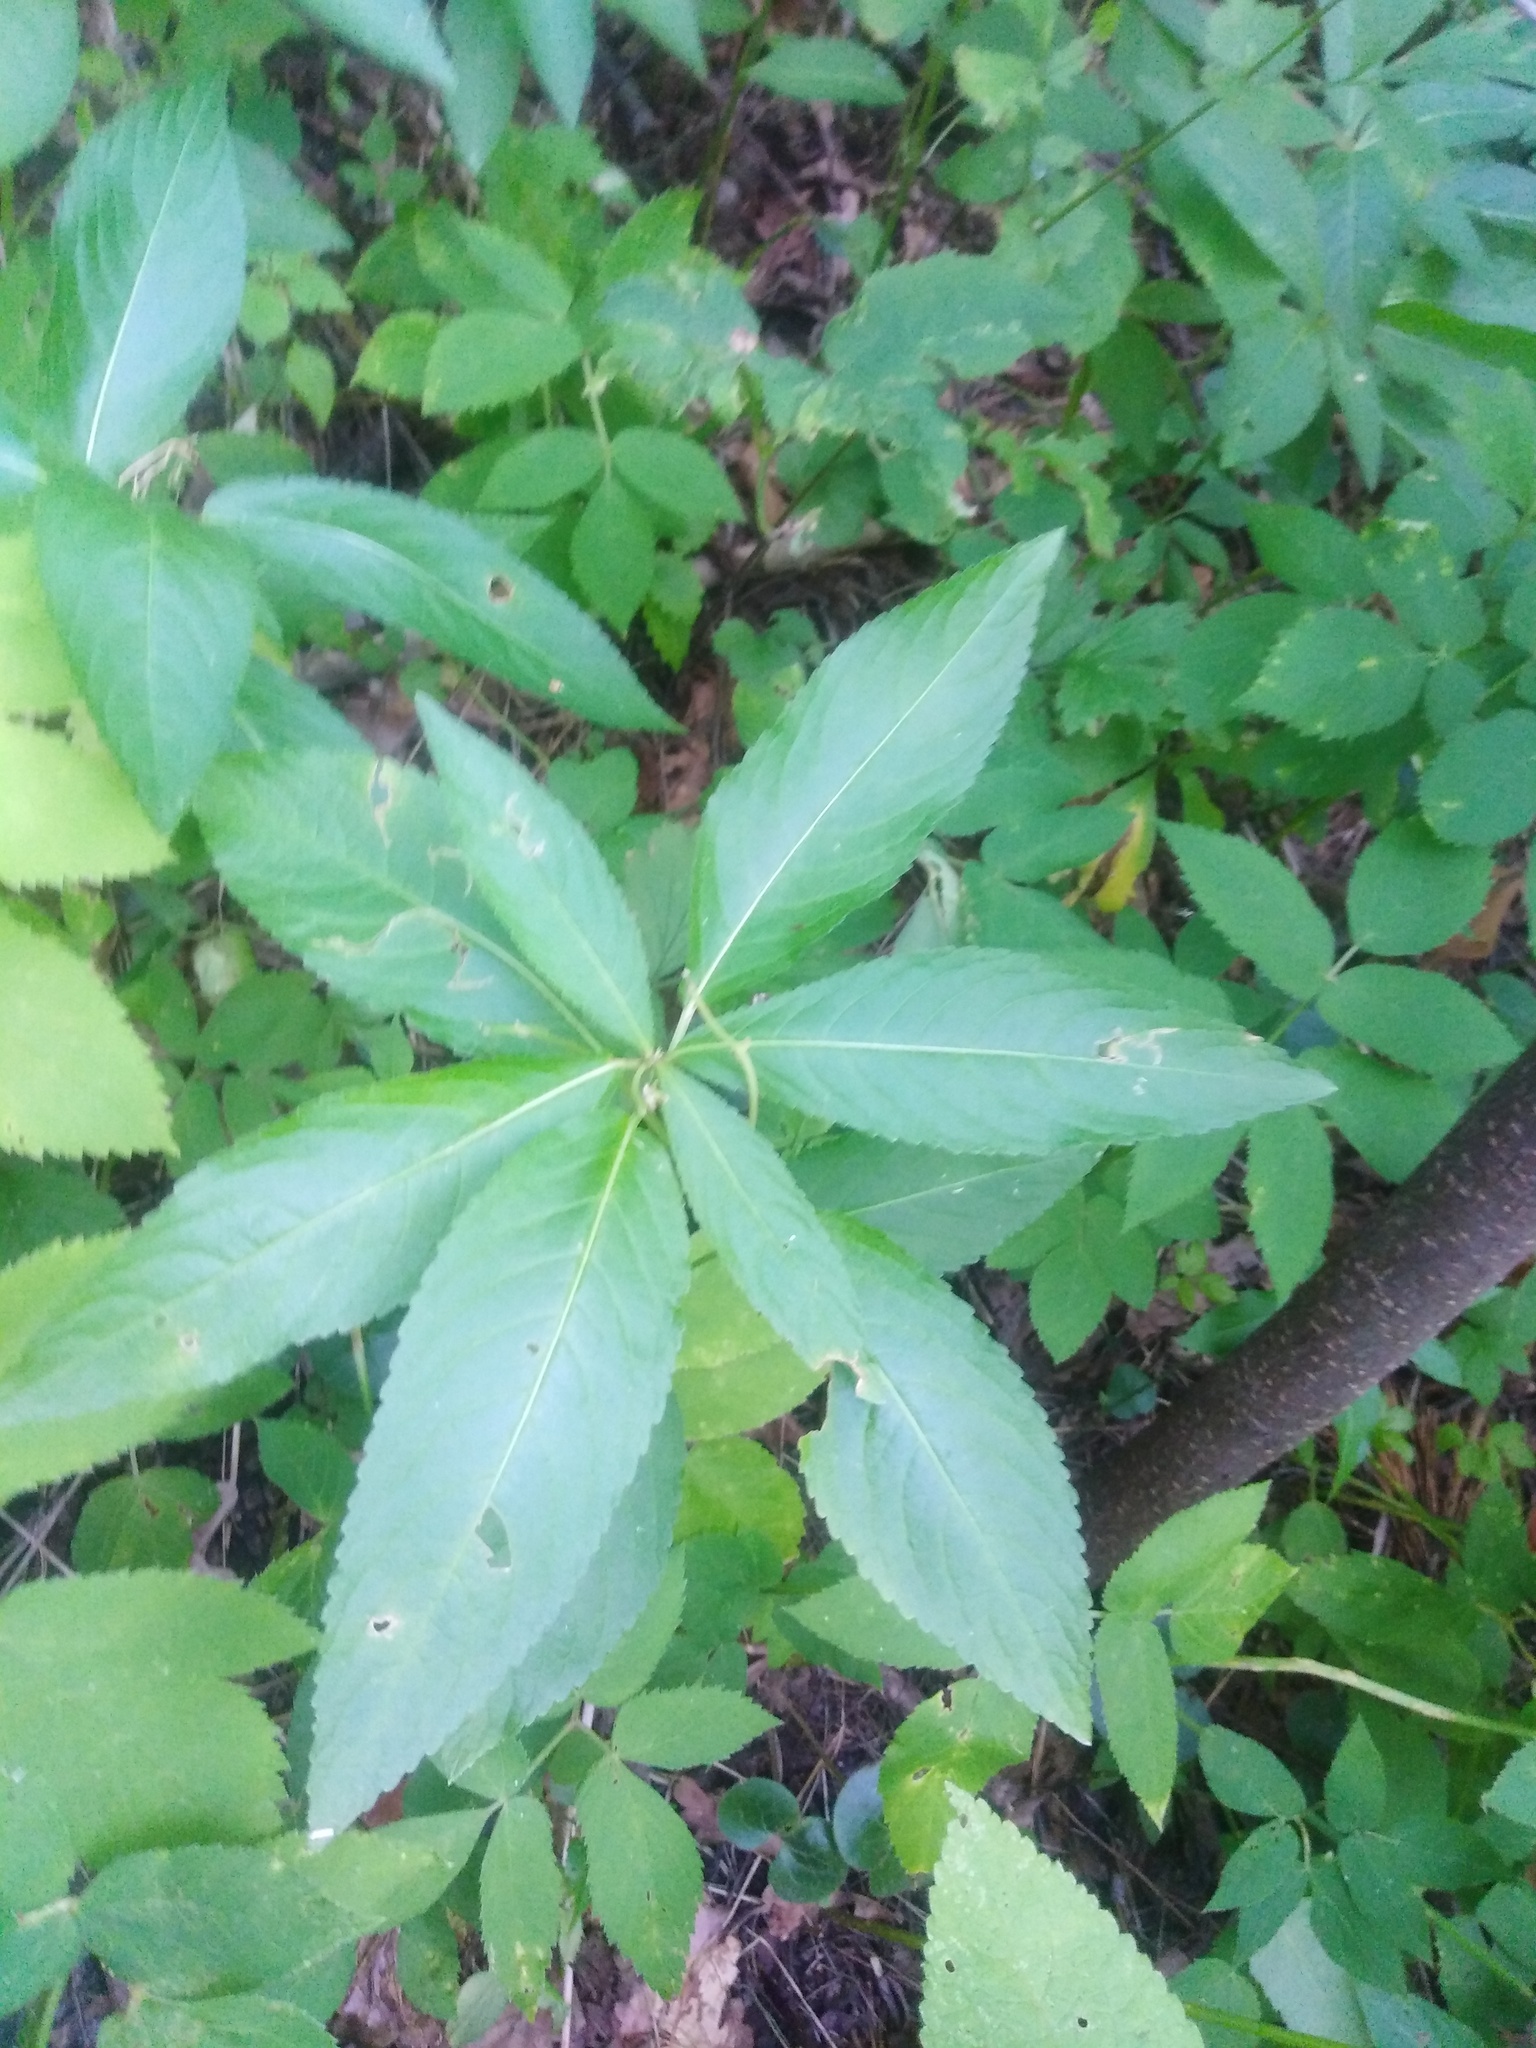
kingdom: Plantae
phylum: Tracheophyta
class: Magnoliopsida
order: Malpighiales
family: Euphorbiaceae
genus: Mercurialis
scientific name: Mercurialis perennis
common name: Dog mercury
